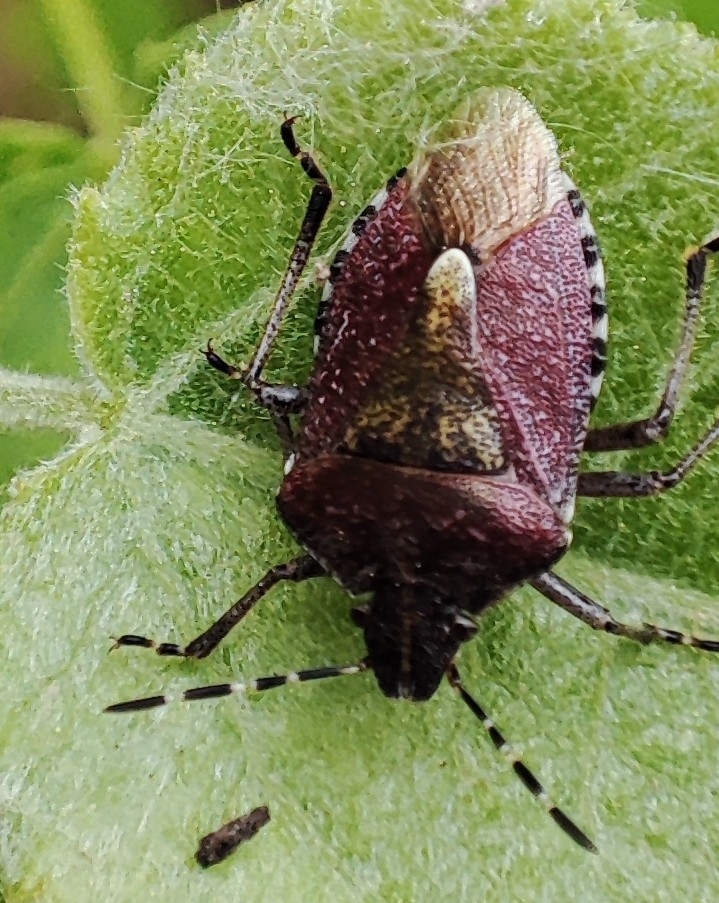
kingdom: Animalia
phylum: Arthropoda
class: Insecta
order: Hemiptera
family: Pentatomidae
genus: Dolycoris
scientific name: Dolycoris baccarum
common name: Sloe bug
